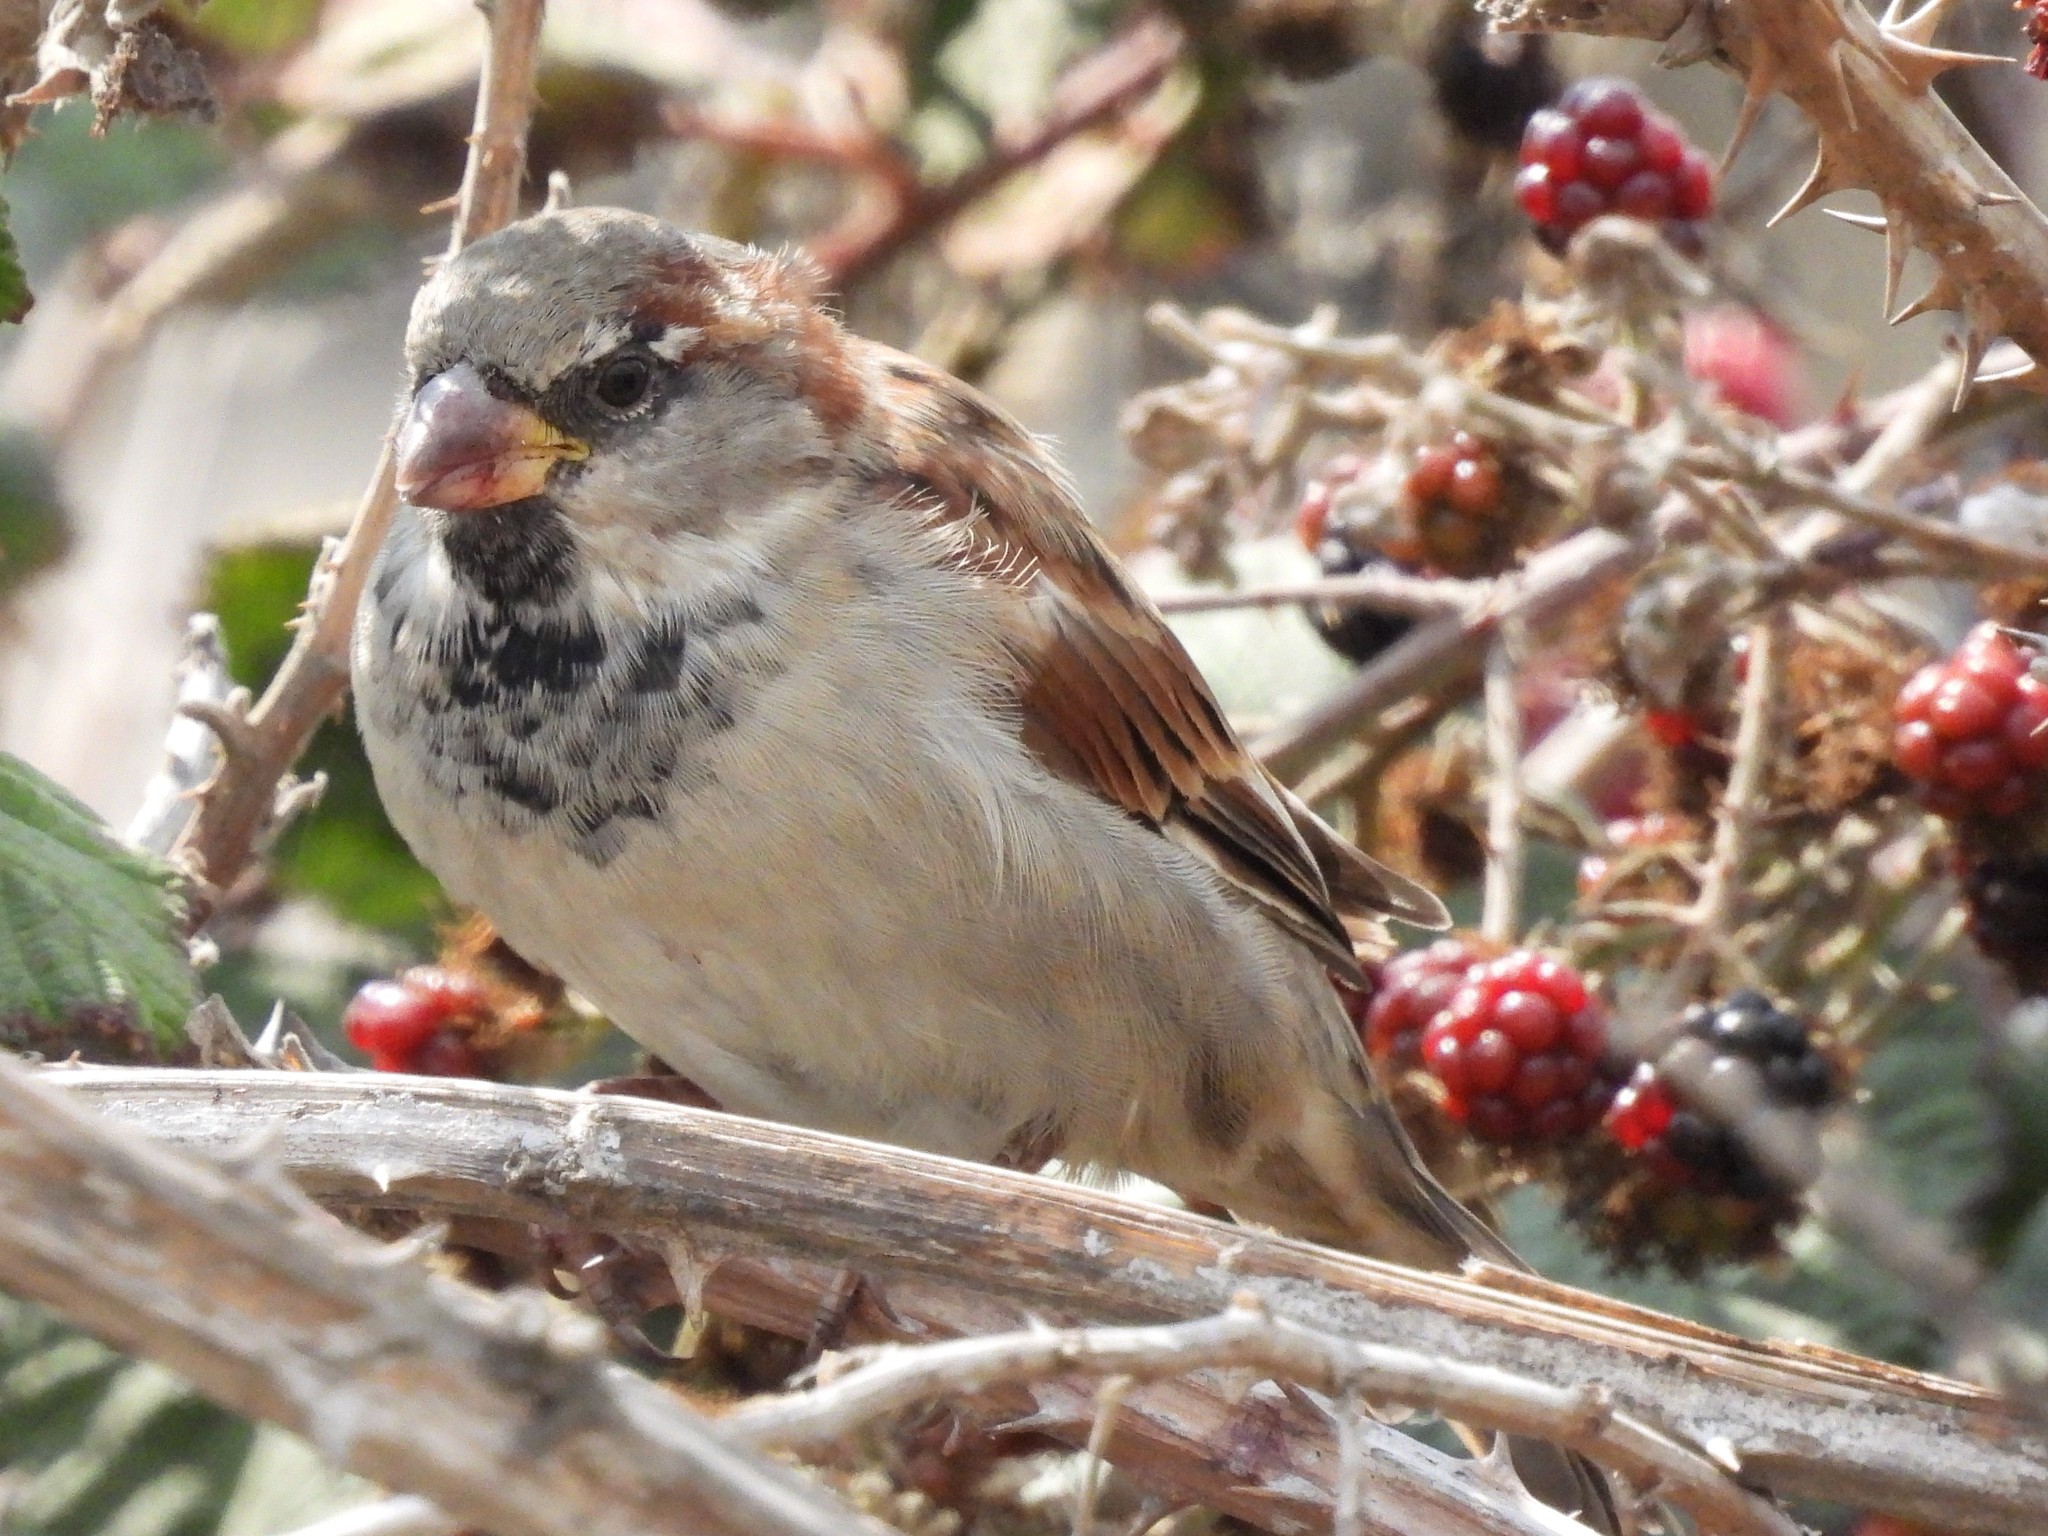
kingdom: Animalia
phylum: Chordata
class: Aves
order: Passeriformes
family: Passeridae
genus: Passer
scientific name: Passer domesticus
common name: House sparrow
